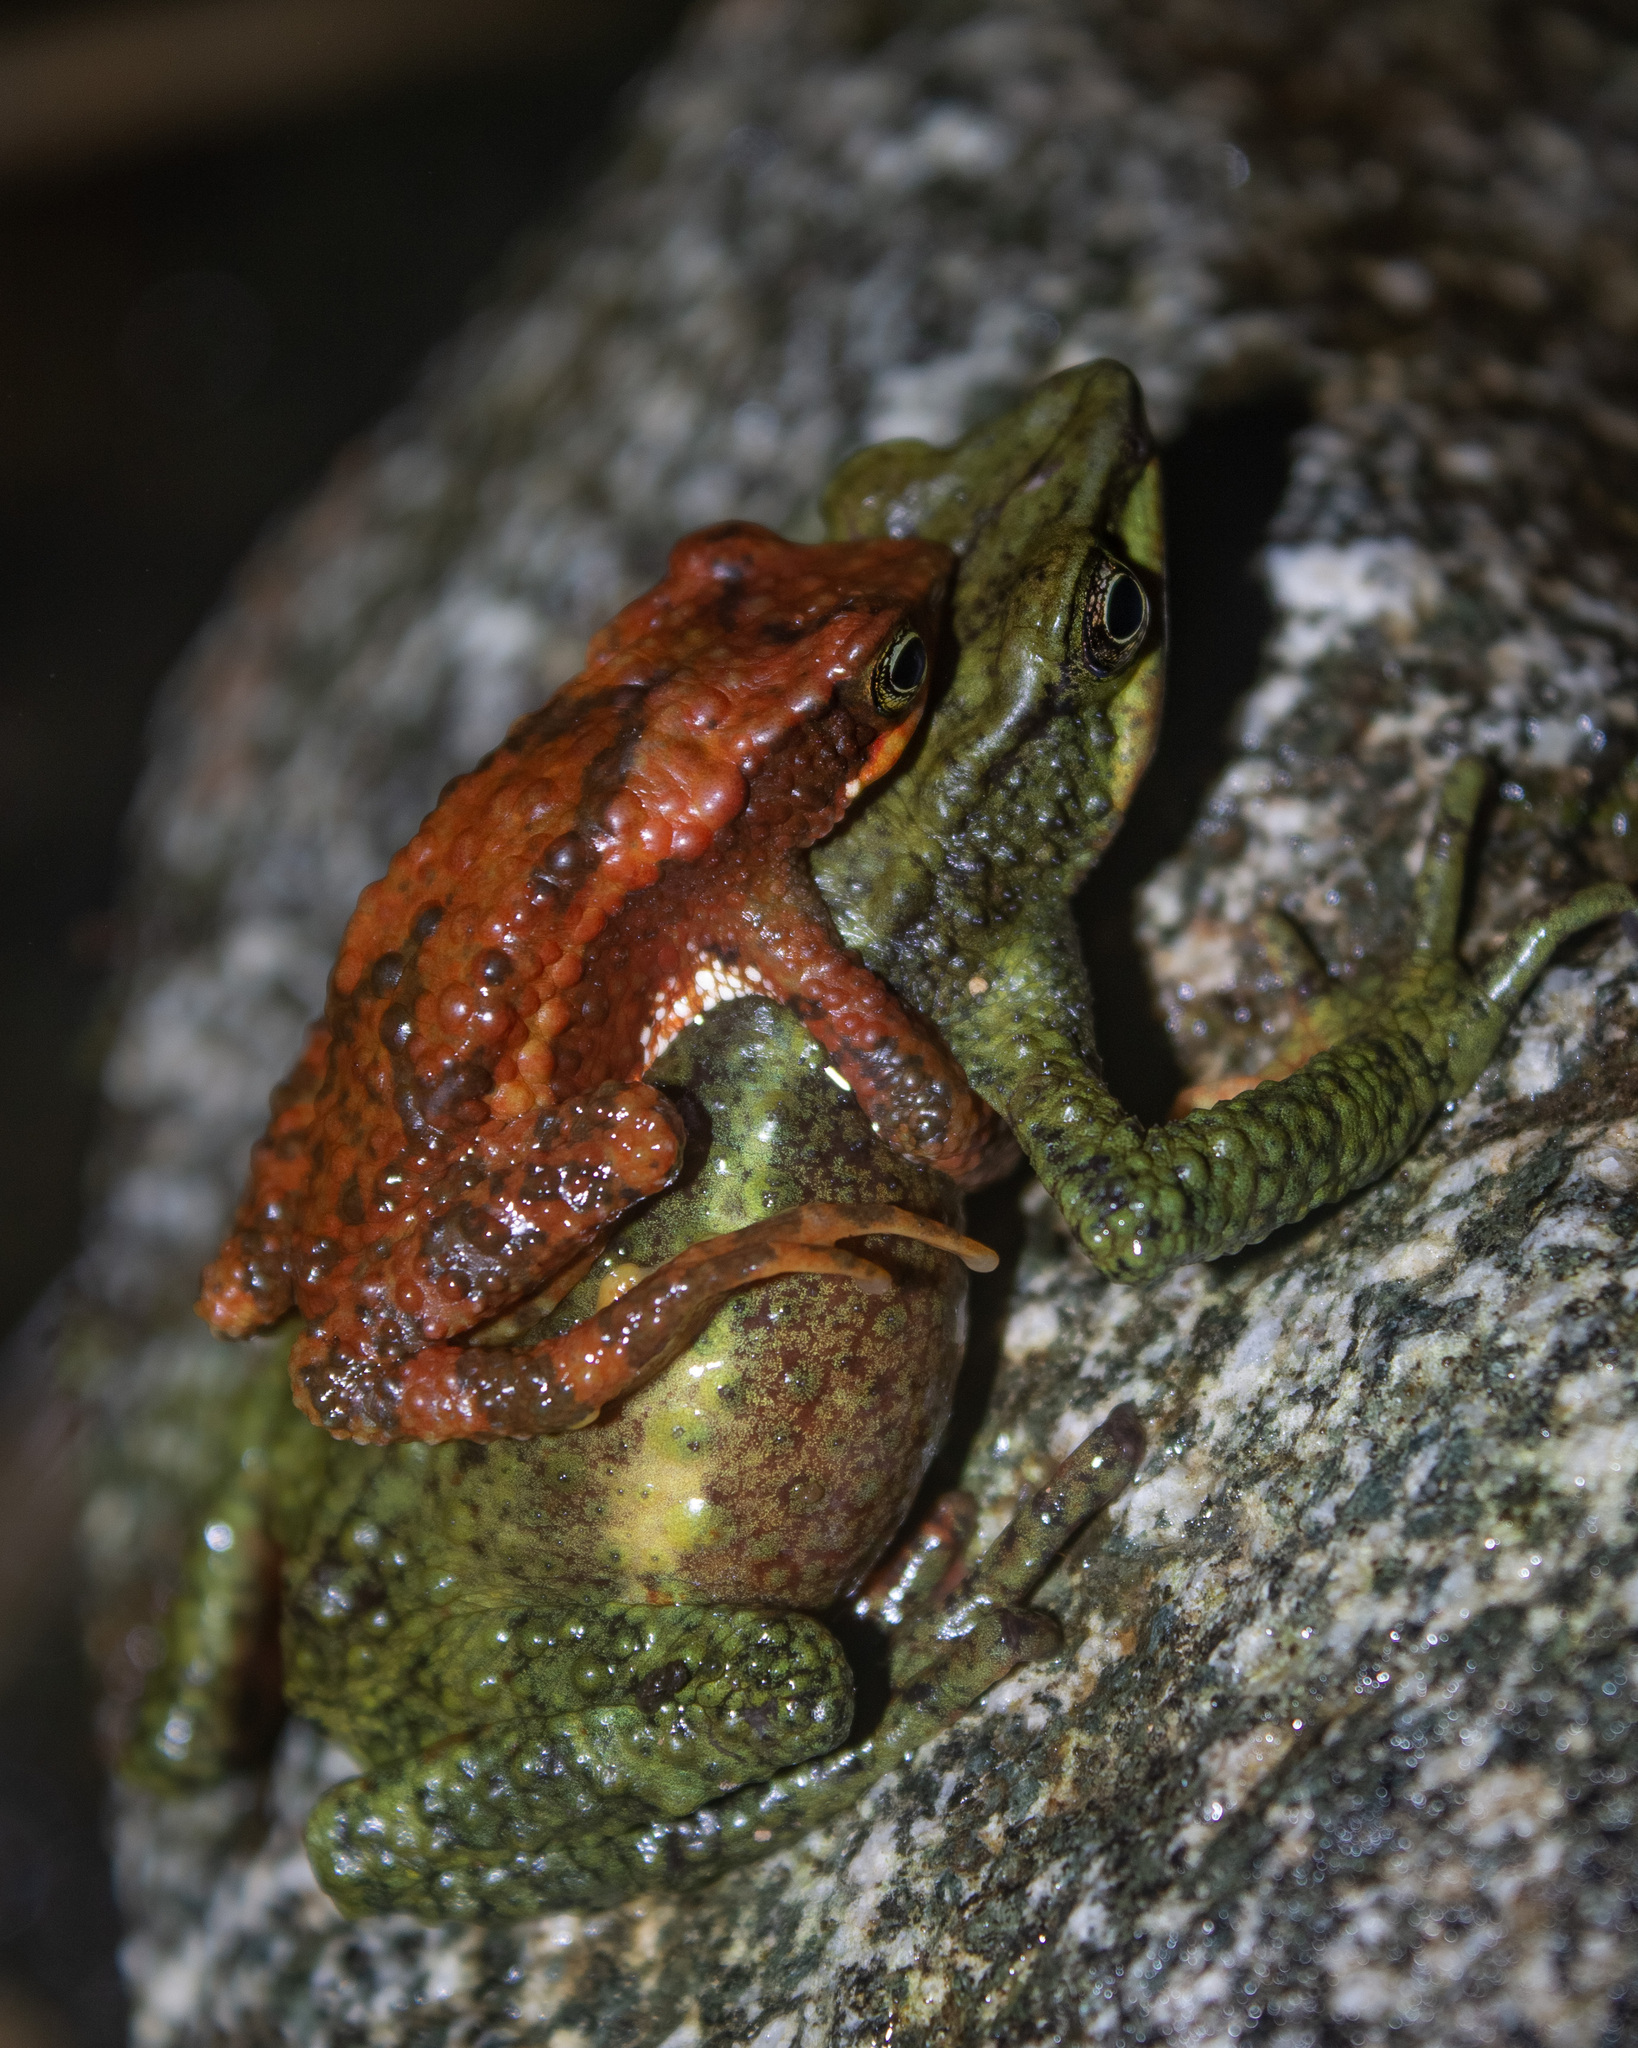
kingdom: Animalia
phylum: Chordata
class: Amphibia
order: Anura
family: Bufonidae
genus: Atelopus
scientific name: Atelopus laetissimus
